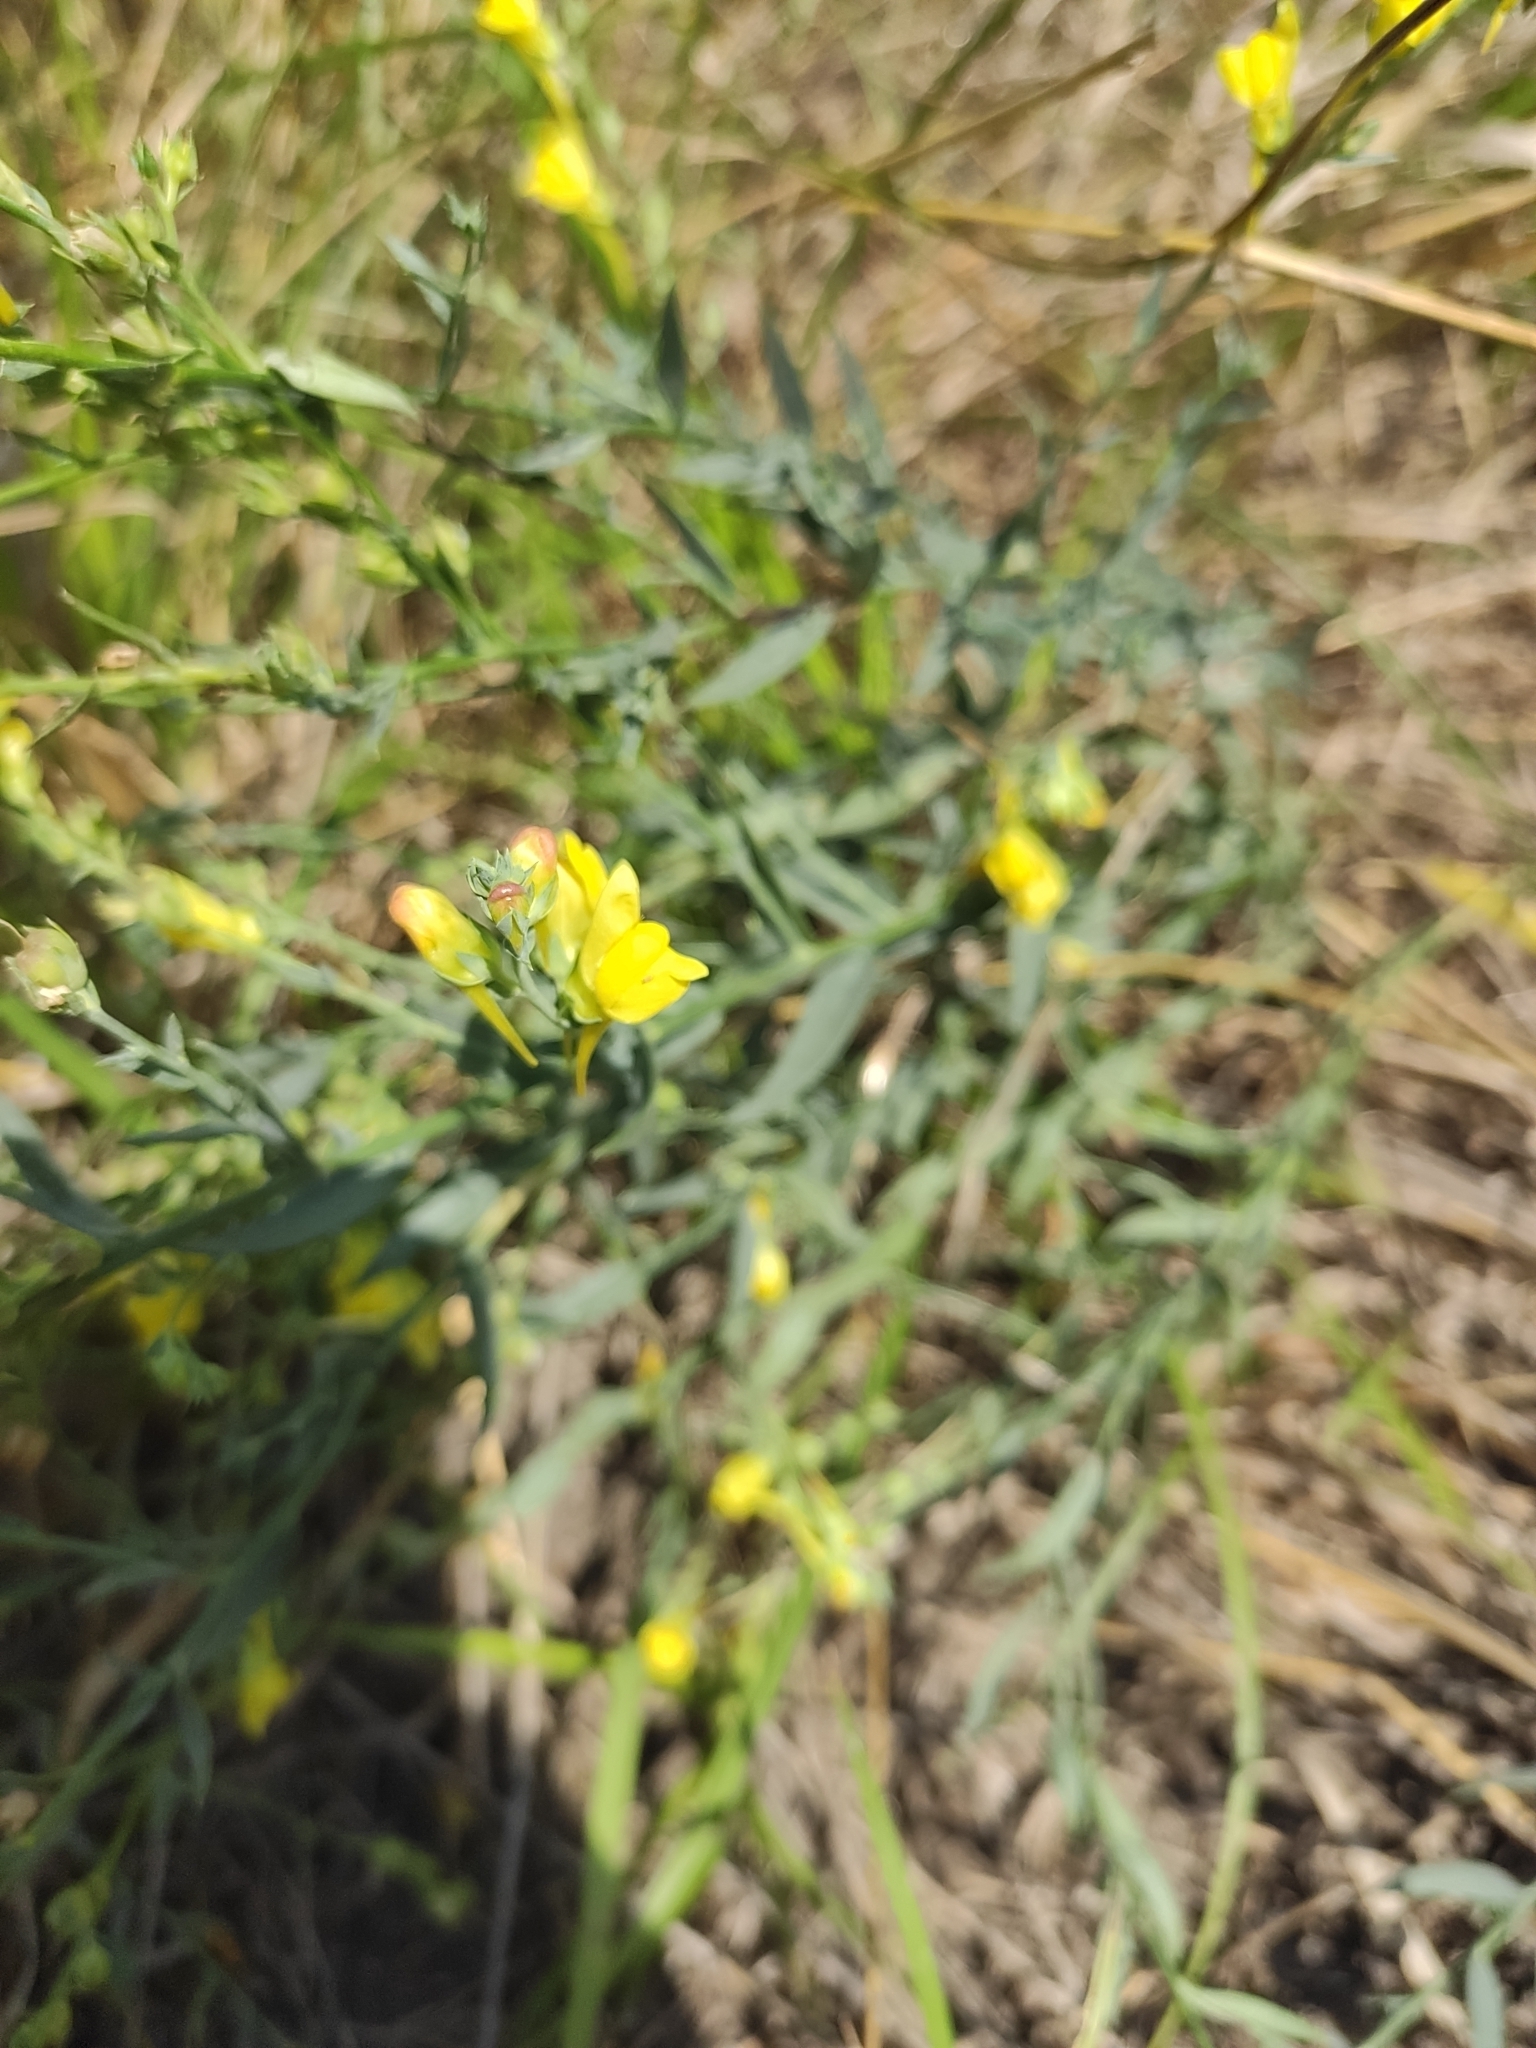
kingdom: Plantae
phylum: Tracheophyta
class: Magnoliopsida
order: Lamiales
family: Plantaginaceae
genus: Linaria
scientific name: Linaria genistifolia
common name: Broomleaf toadflax
